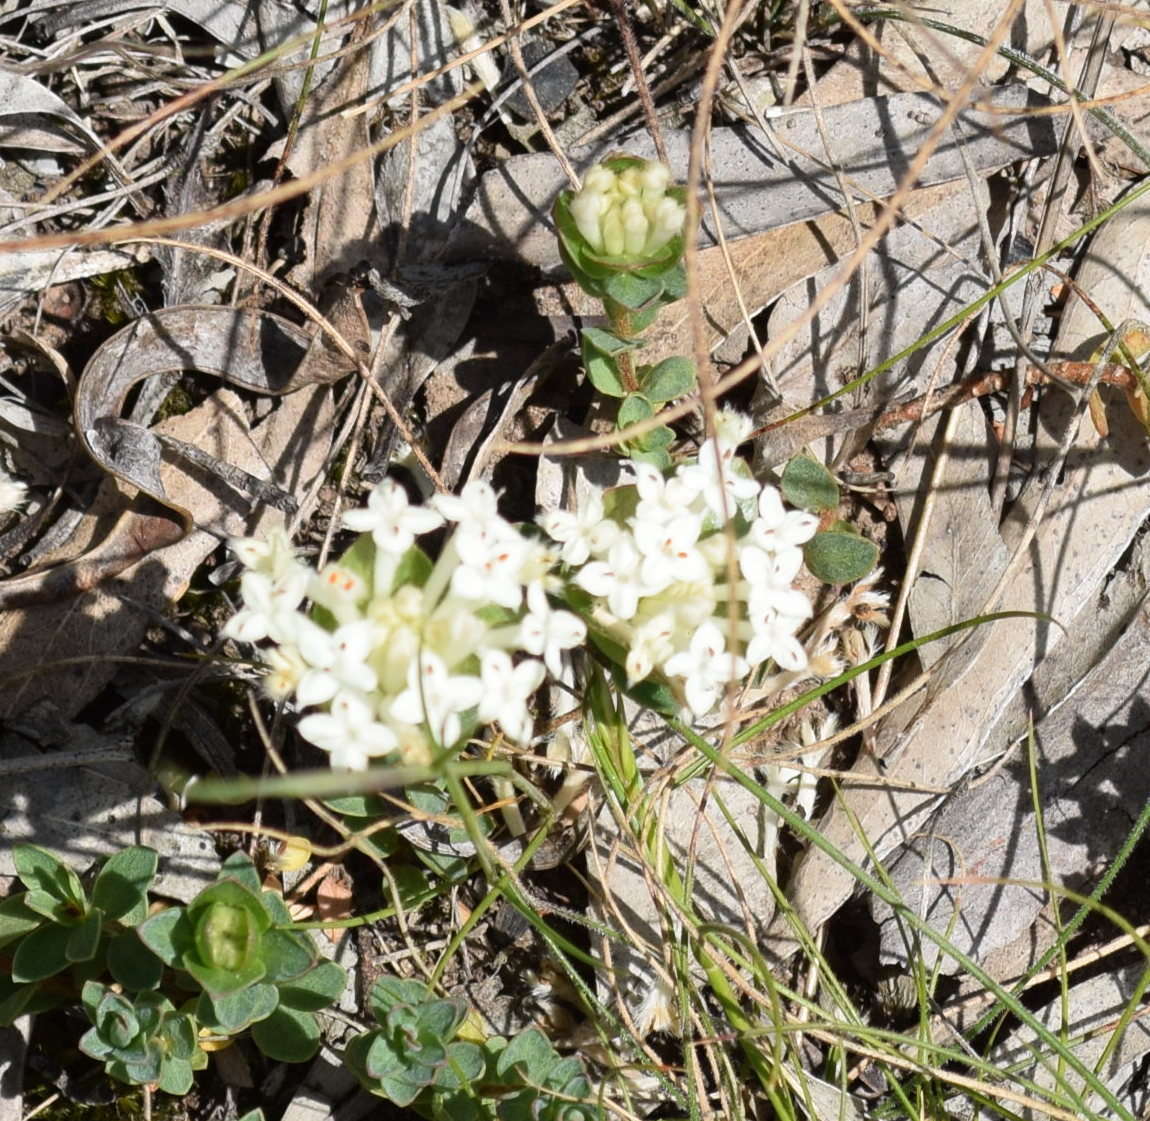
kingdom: Plantae
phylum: Tracheophyta
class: Magnoliopsida
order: Malvales
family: Thymelaeaceae
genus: Pimelea
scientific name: Pimelea humilis
